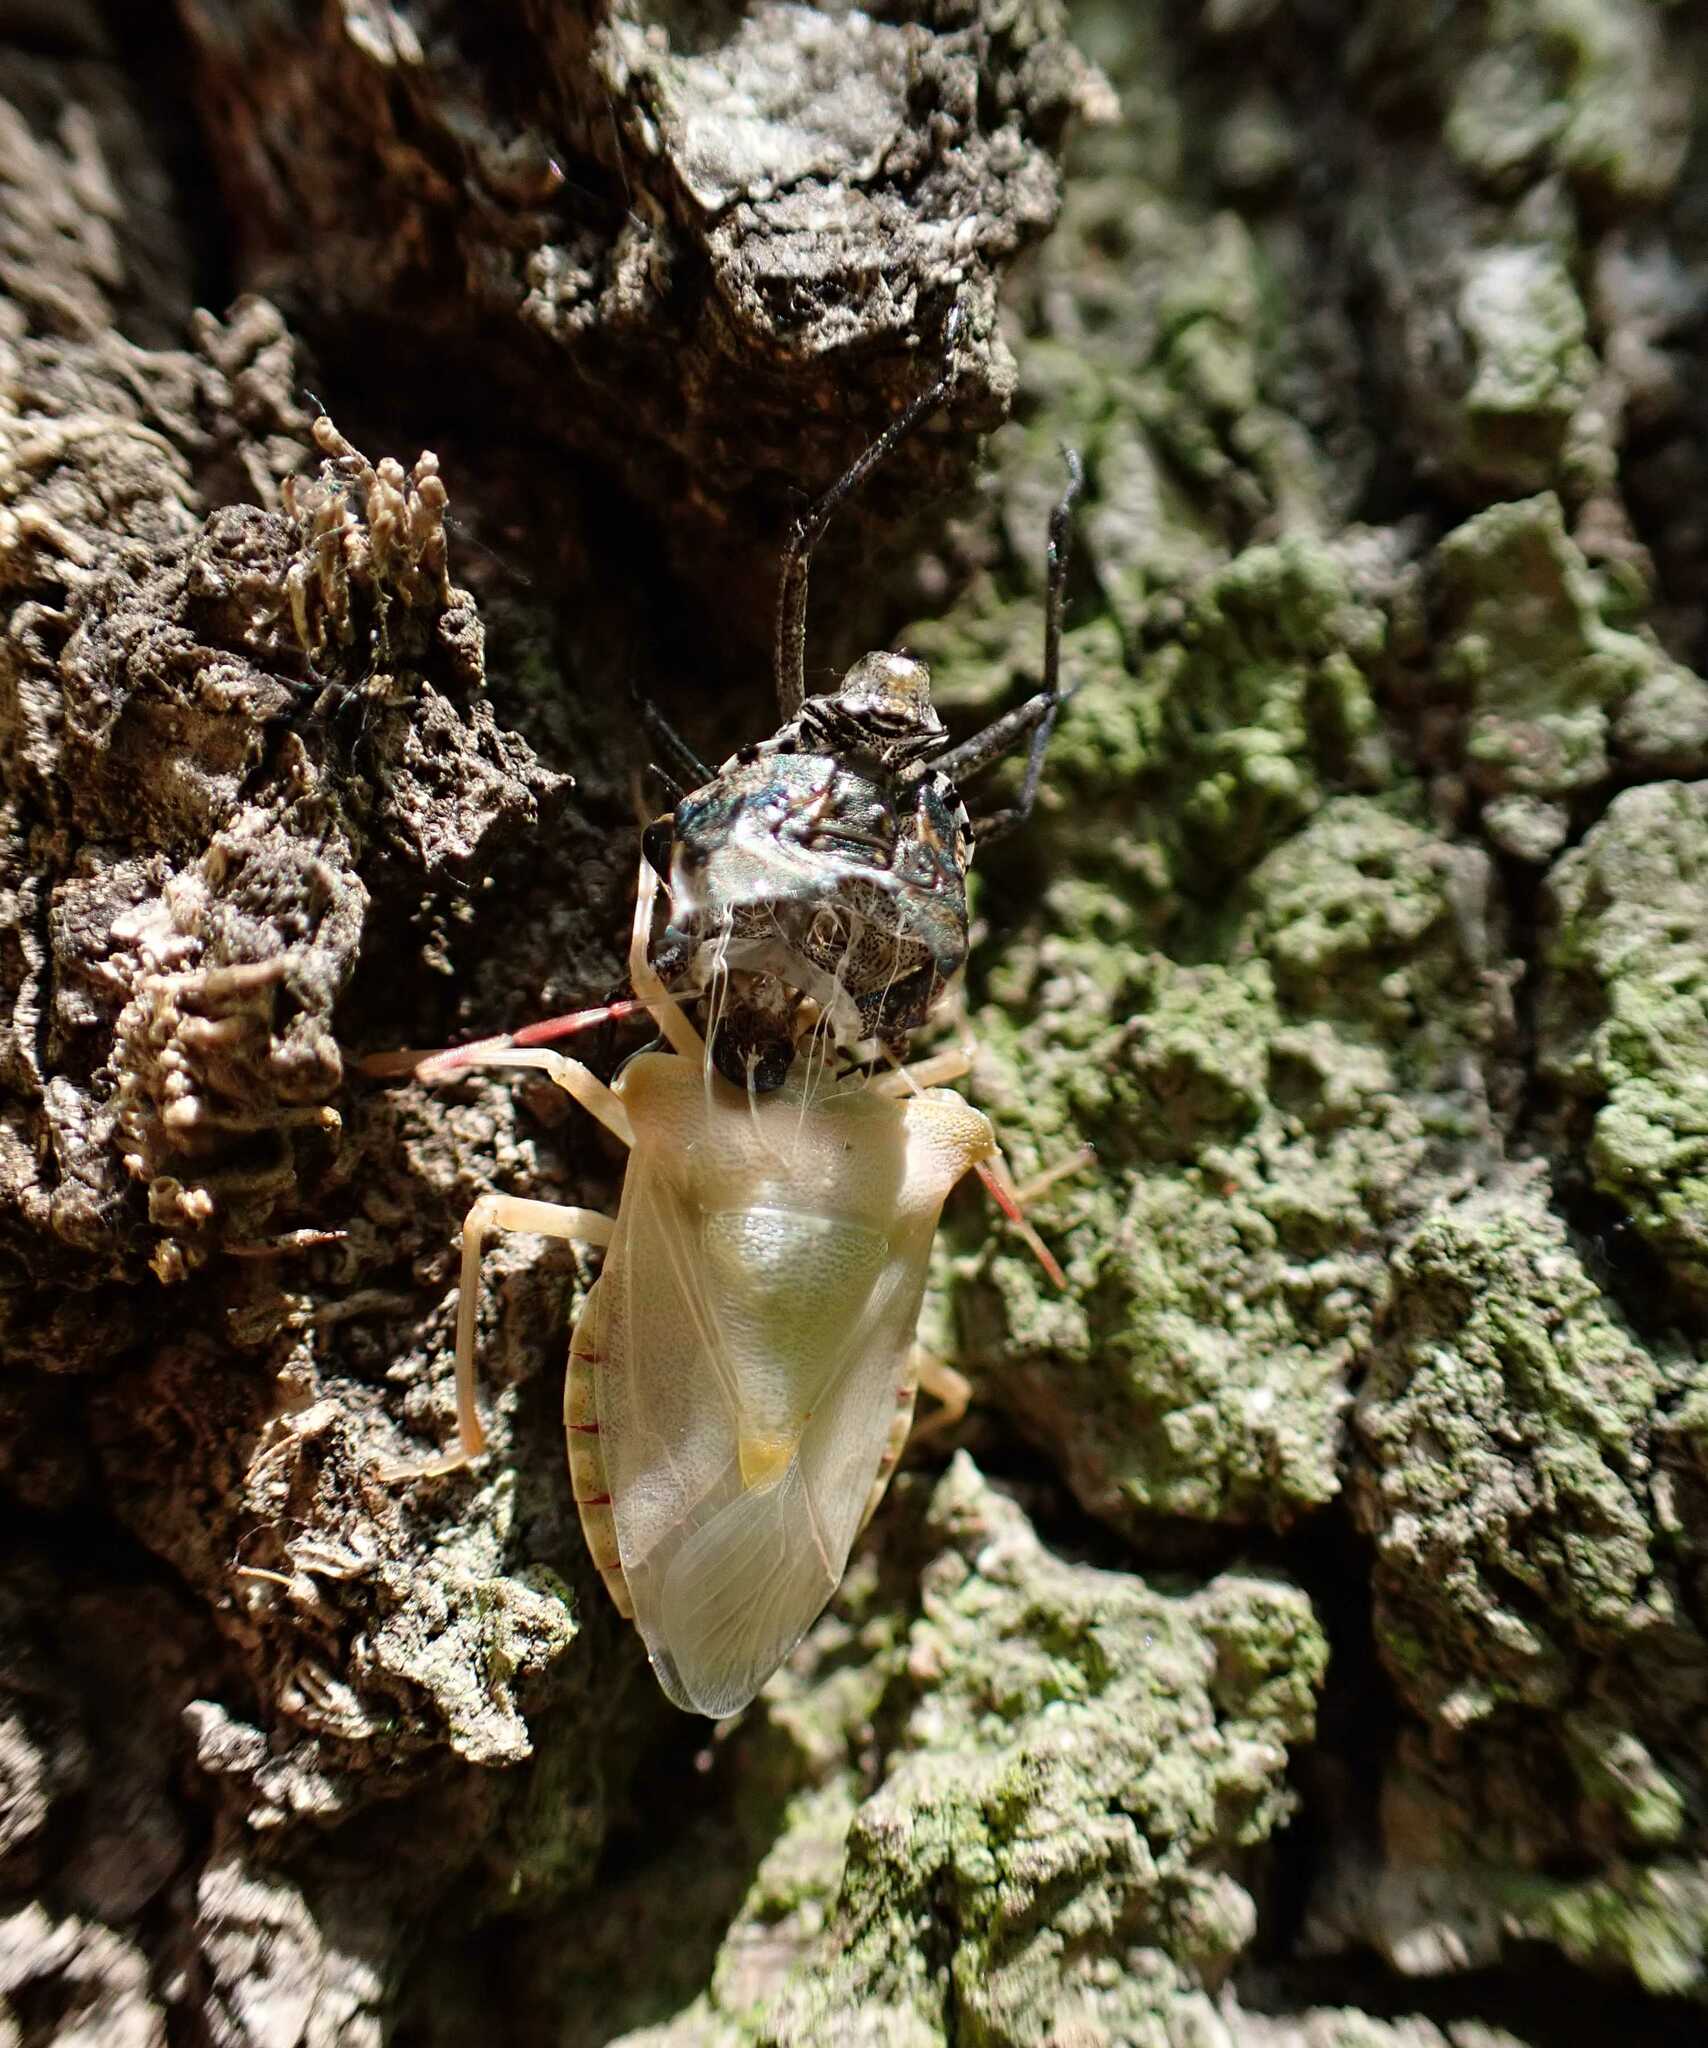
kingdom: Animalia
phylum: Arthropoda
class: Insecta
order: Hemiptera
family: Pentatomidae
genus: Pentatoma
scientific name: Pentatoma rufipes
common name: Forest bug
